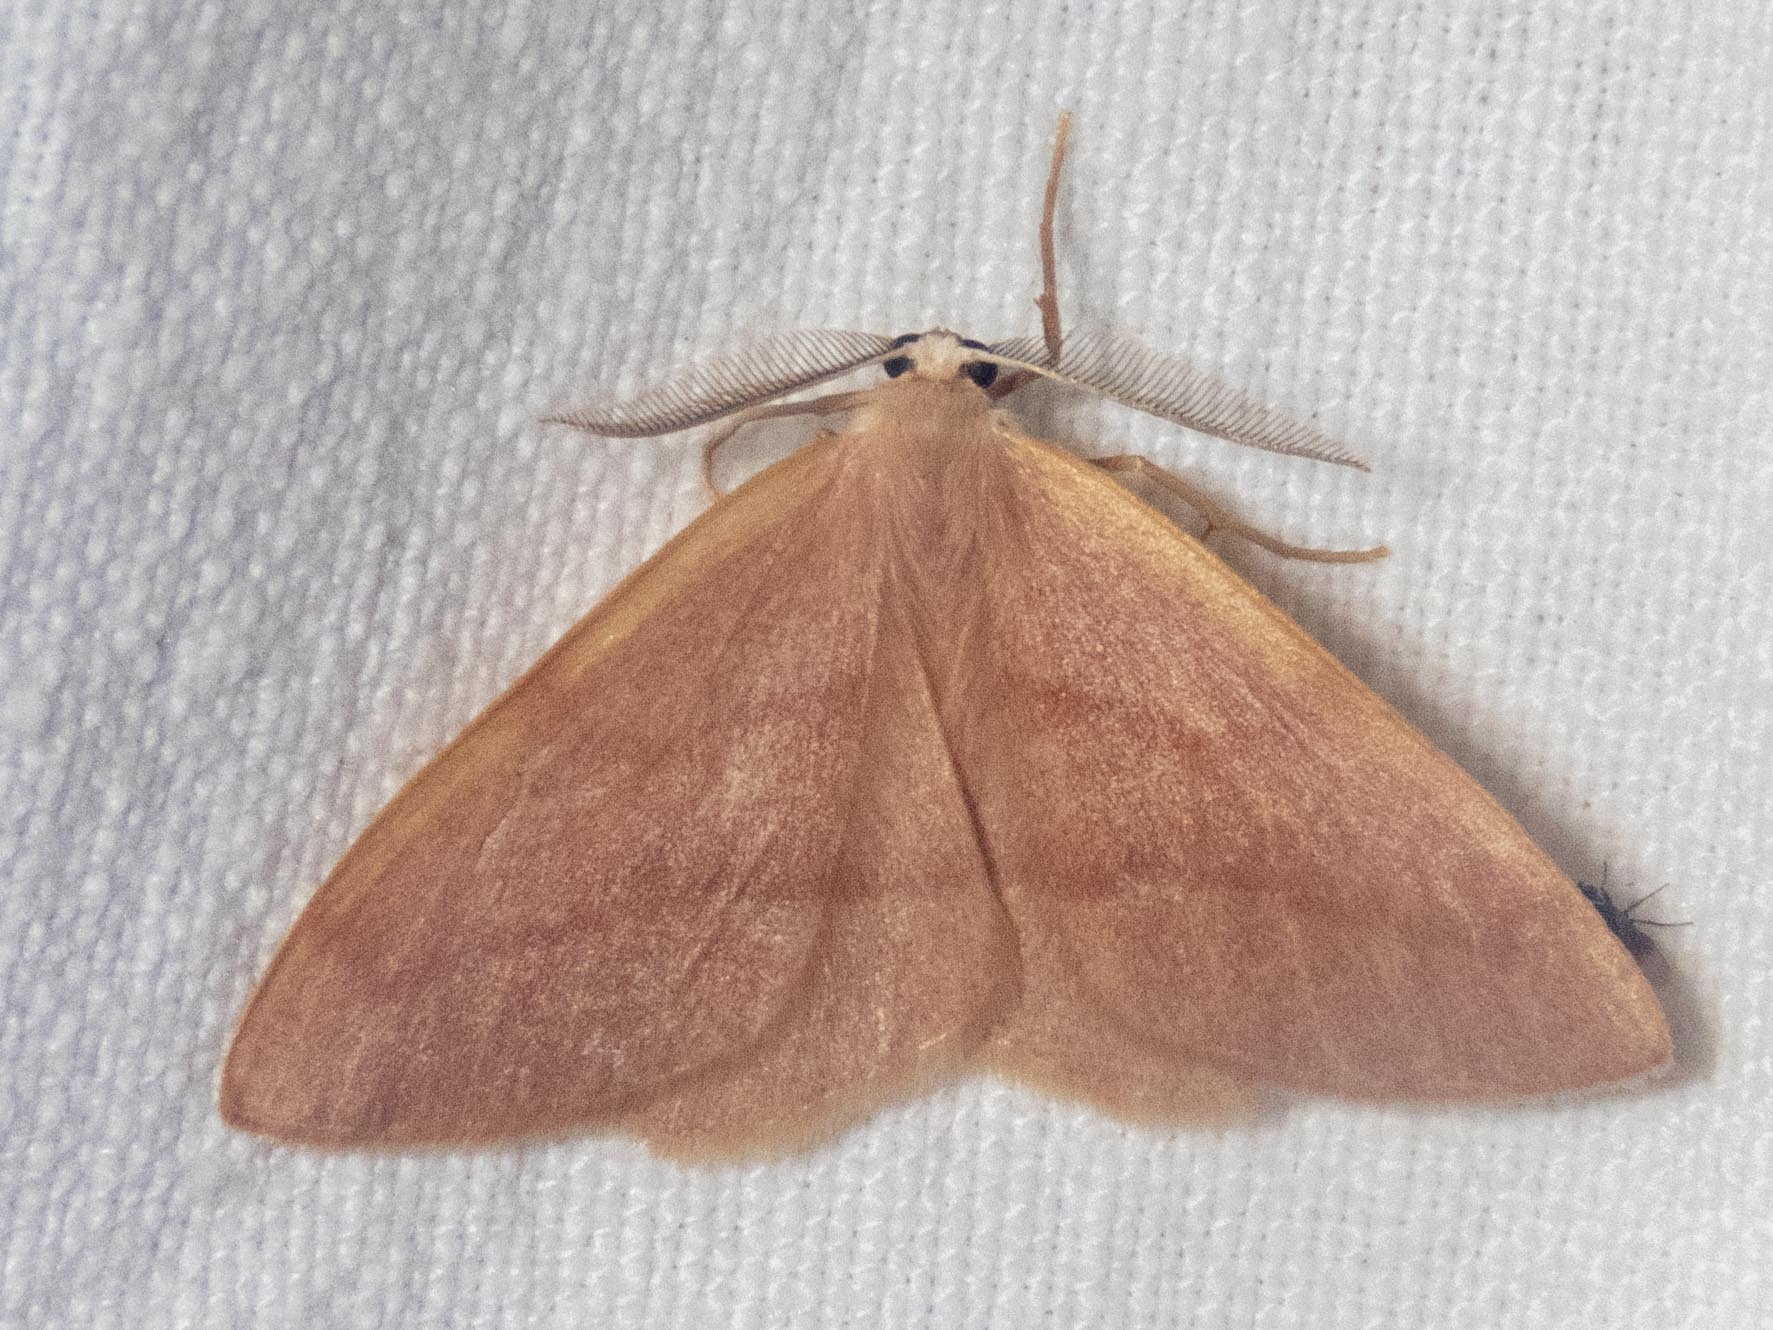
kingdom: Animalia
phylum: Arthropoda
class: Insecta
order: Lepidoptera
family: Geometridae
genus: Hylaea
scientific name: Hylaea fasciaria
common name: Barred red
